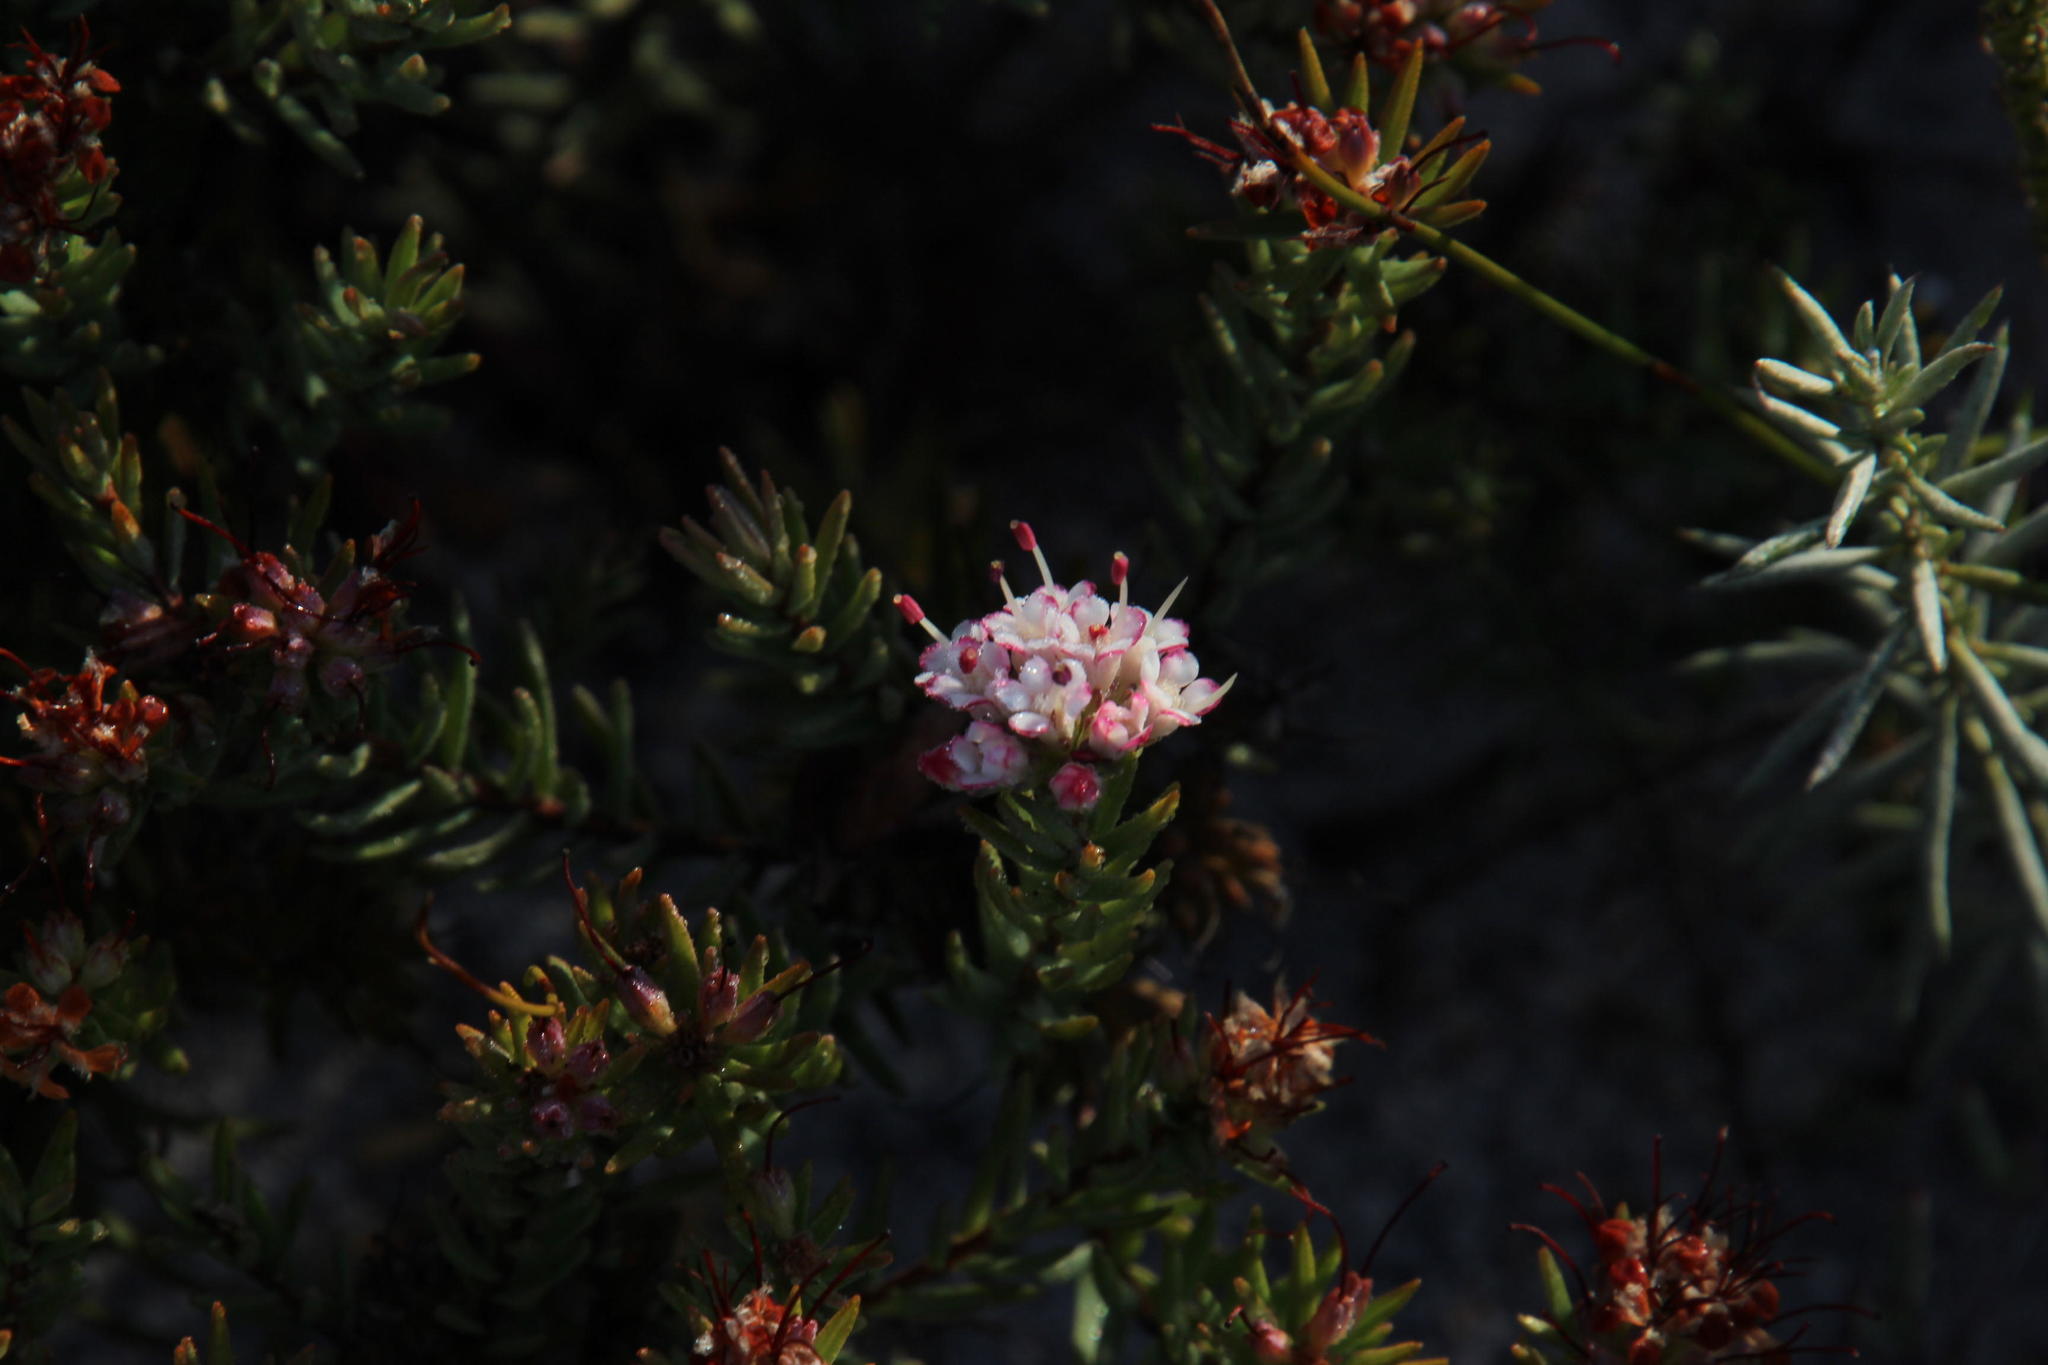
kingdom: Plantae
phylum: Tracheophyta
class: Magnoliopsida
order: Sapindales
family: Rutaceae
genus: Macrostylis
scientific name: Macrostylis villosa
